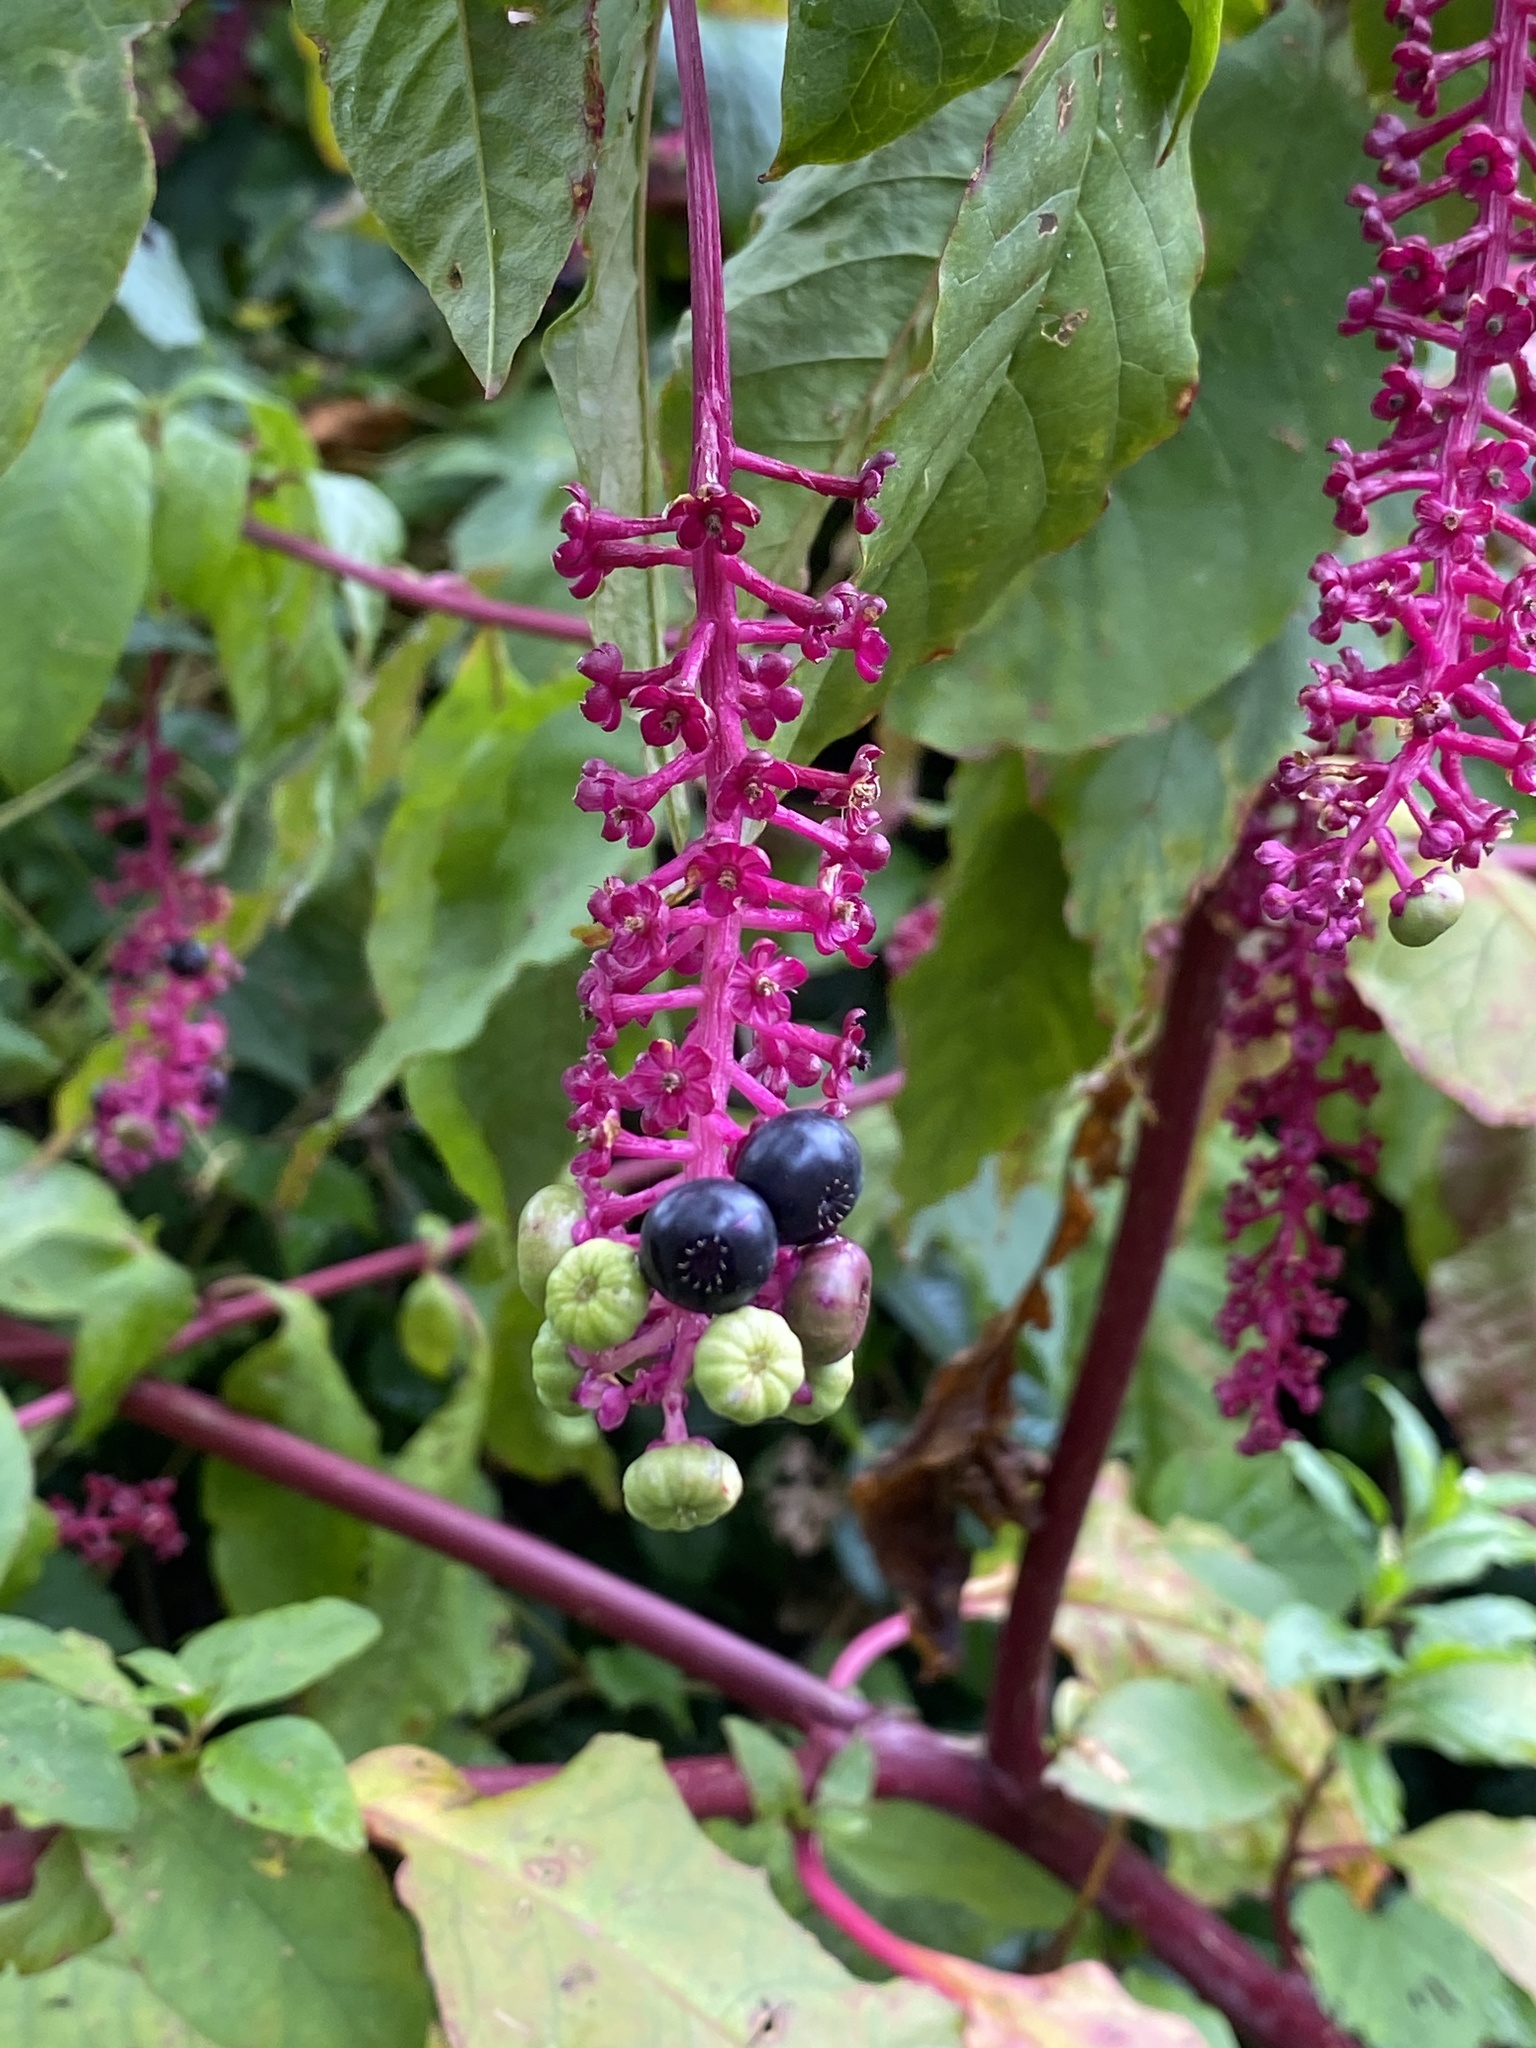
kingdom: Plantae
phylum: Tracheophyta
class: Magnoliopsida
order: Caryophyllales
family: Phytolaccaceae
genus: Phytolacca
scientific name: Phytolacca americana
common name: American pokeweed
